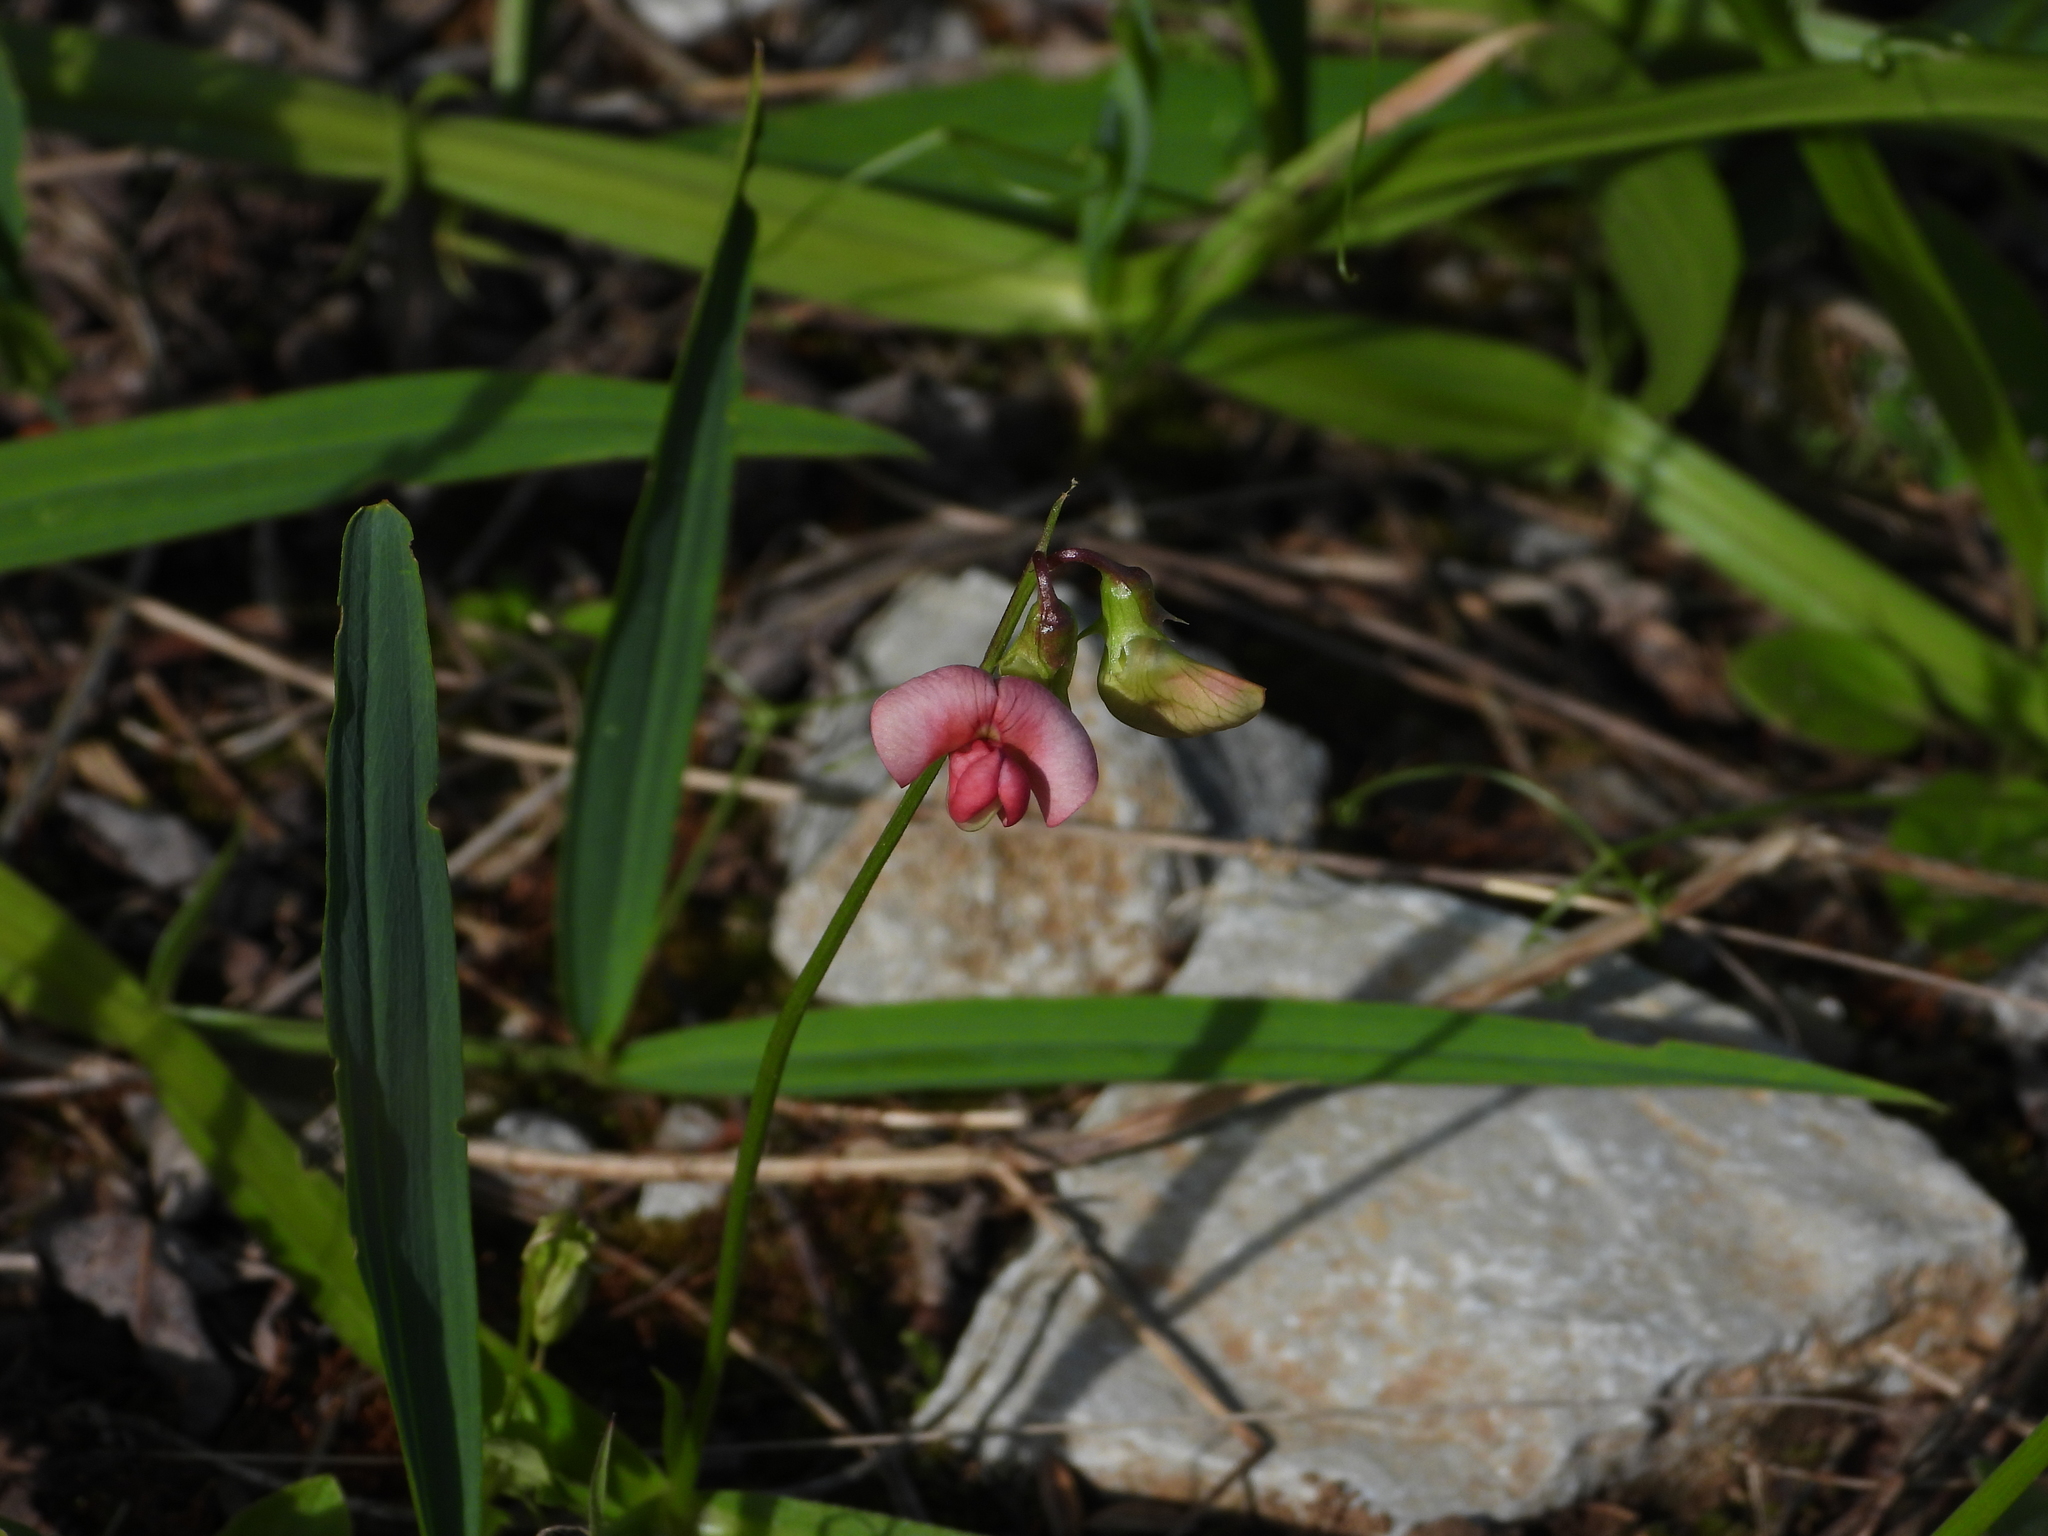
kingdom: Plantae
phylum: Tracheophyta
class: Magnoliopsida
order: Fabales
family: Fabaceae
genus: Lathyrus
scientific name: Lathyrus sylvestris
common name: Flat pea
